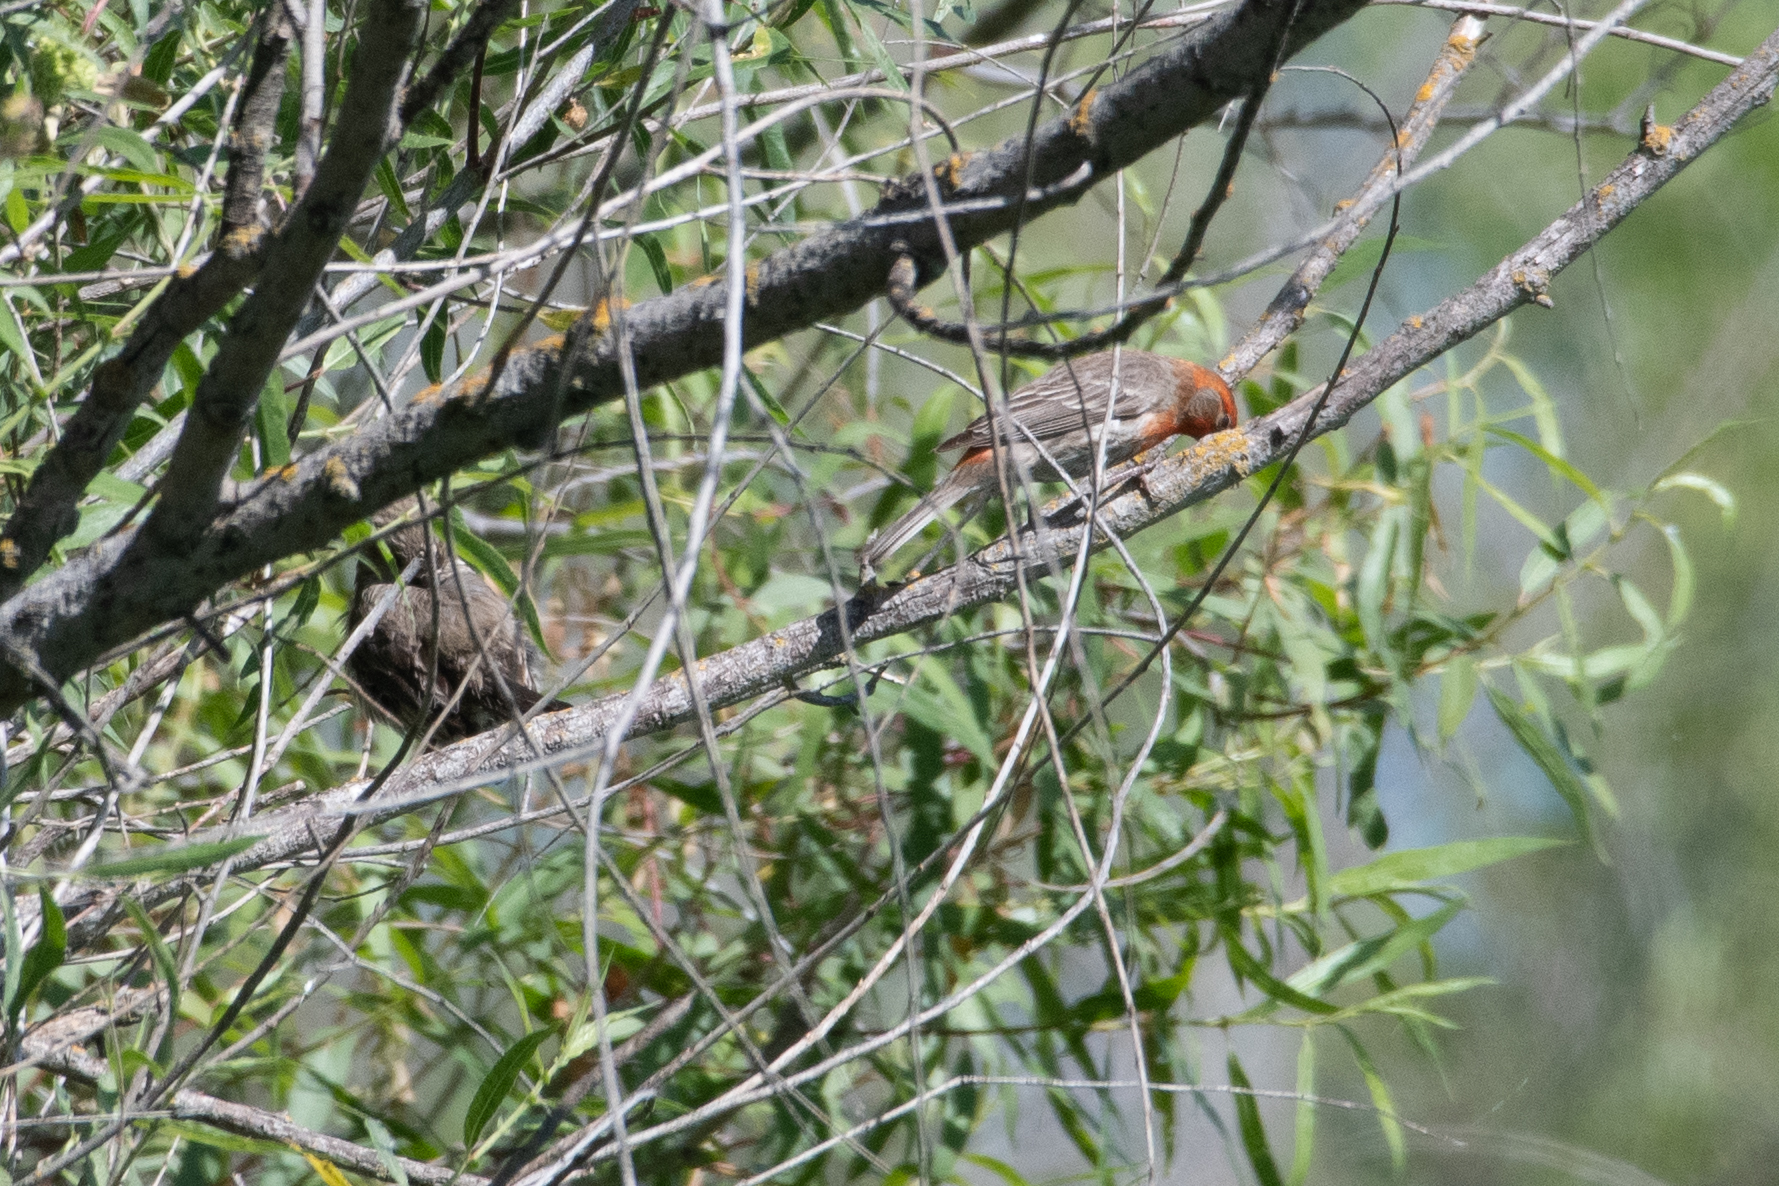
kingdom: Animalia
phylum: Chordata
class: Aves
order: Passeriformes
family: Fringillidae
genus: Haemorhous
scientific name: Haemorhous mexicanus
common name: House finch
